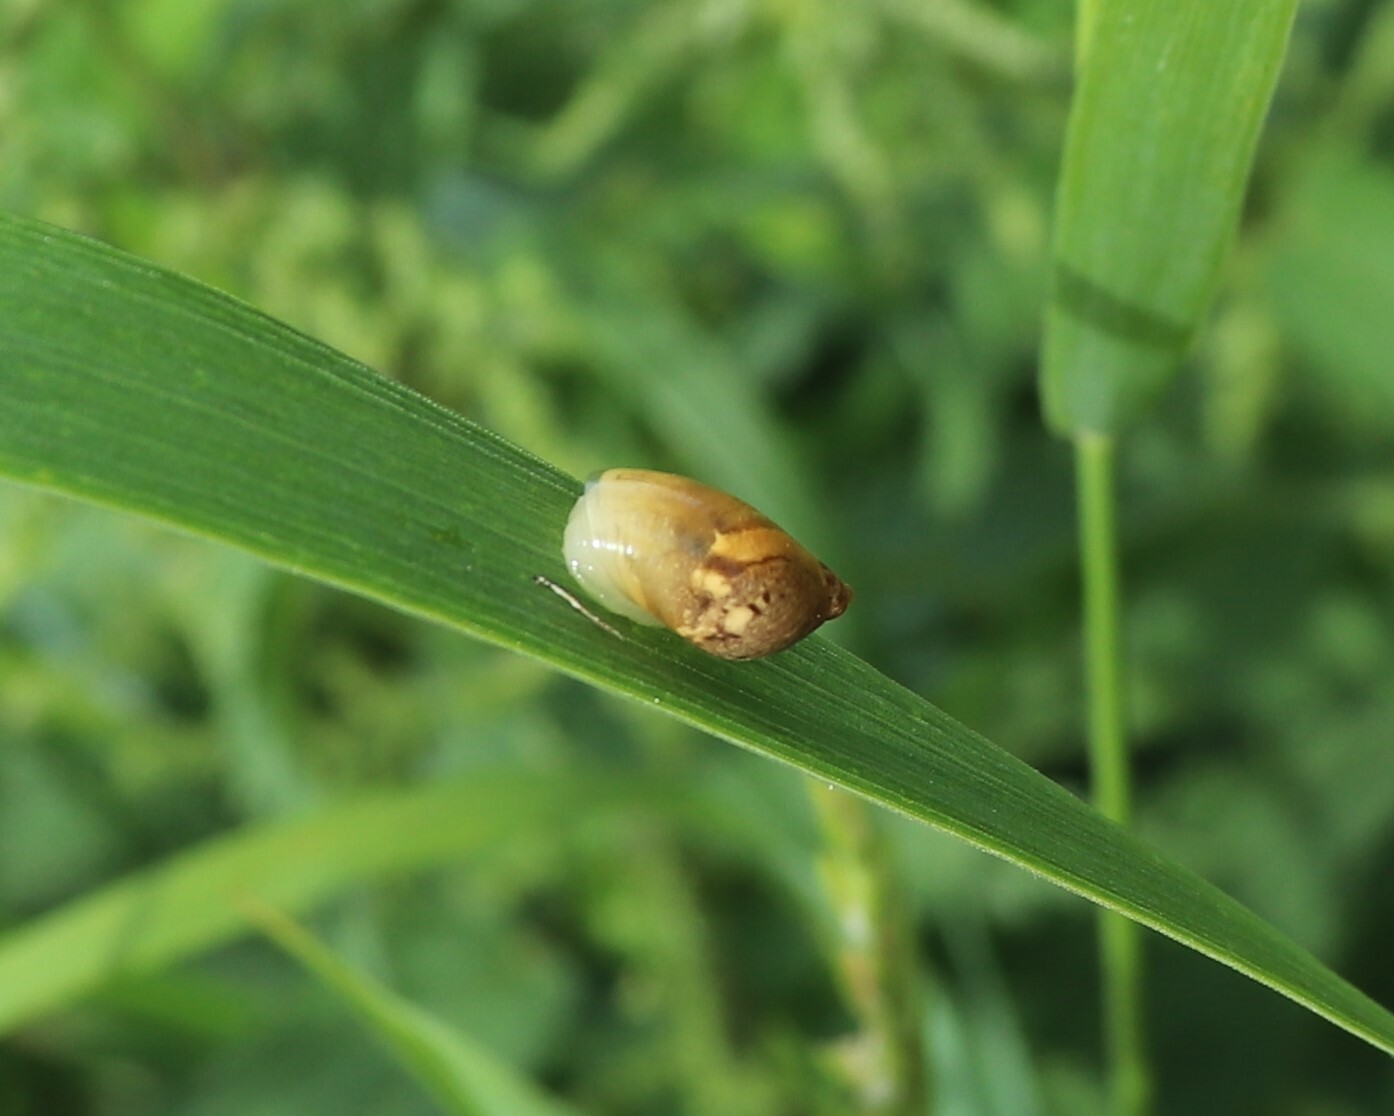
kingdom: Animalia
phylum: Mollusca
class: Gastropoda
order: Stylommatophora
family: Succineidae
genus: Succinea
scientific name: Succinea putris
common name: European ambersnail
